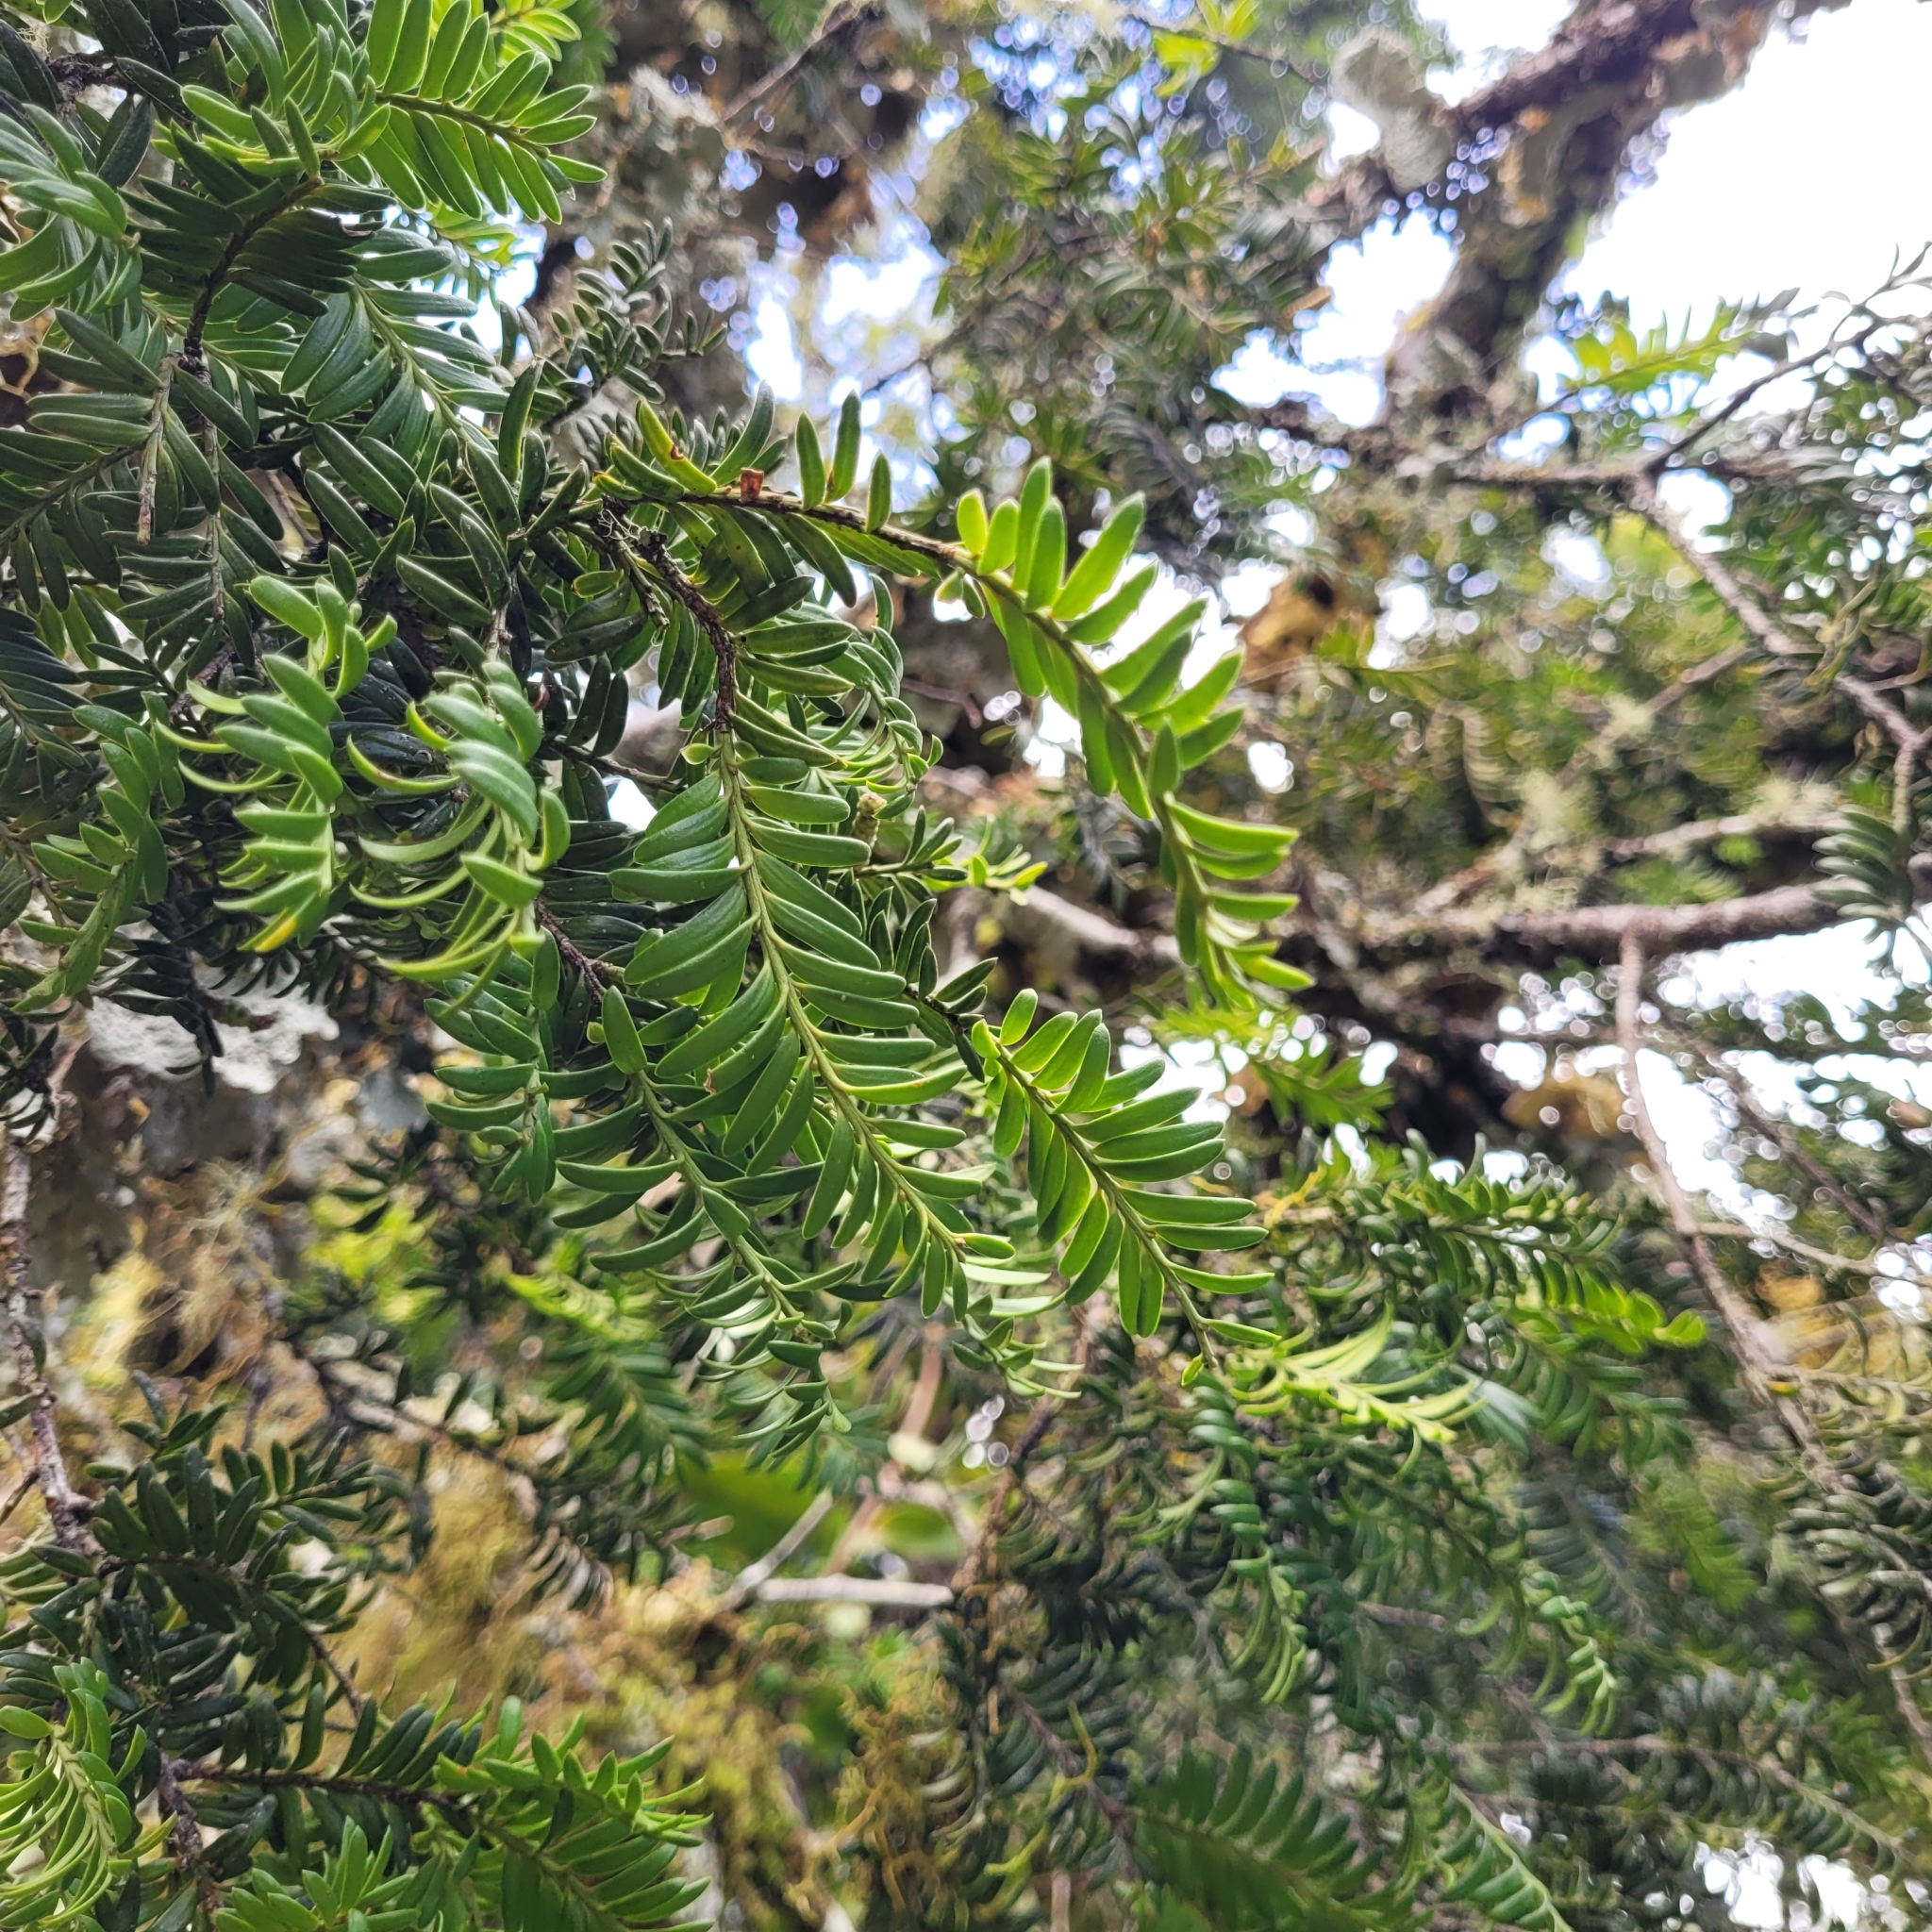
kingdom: Plantae
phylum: Tracheophyta
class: Pinopsida
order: Pinales
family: Podocarpaceae
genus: Prumnopitys
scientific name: Prumnopitys ferruginea
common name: Brown pine
